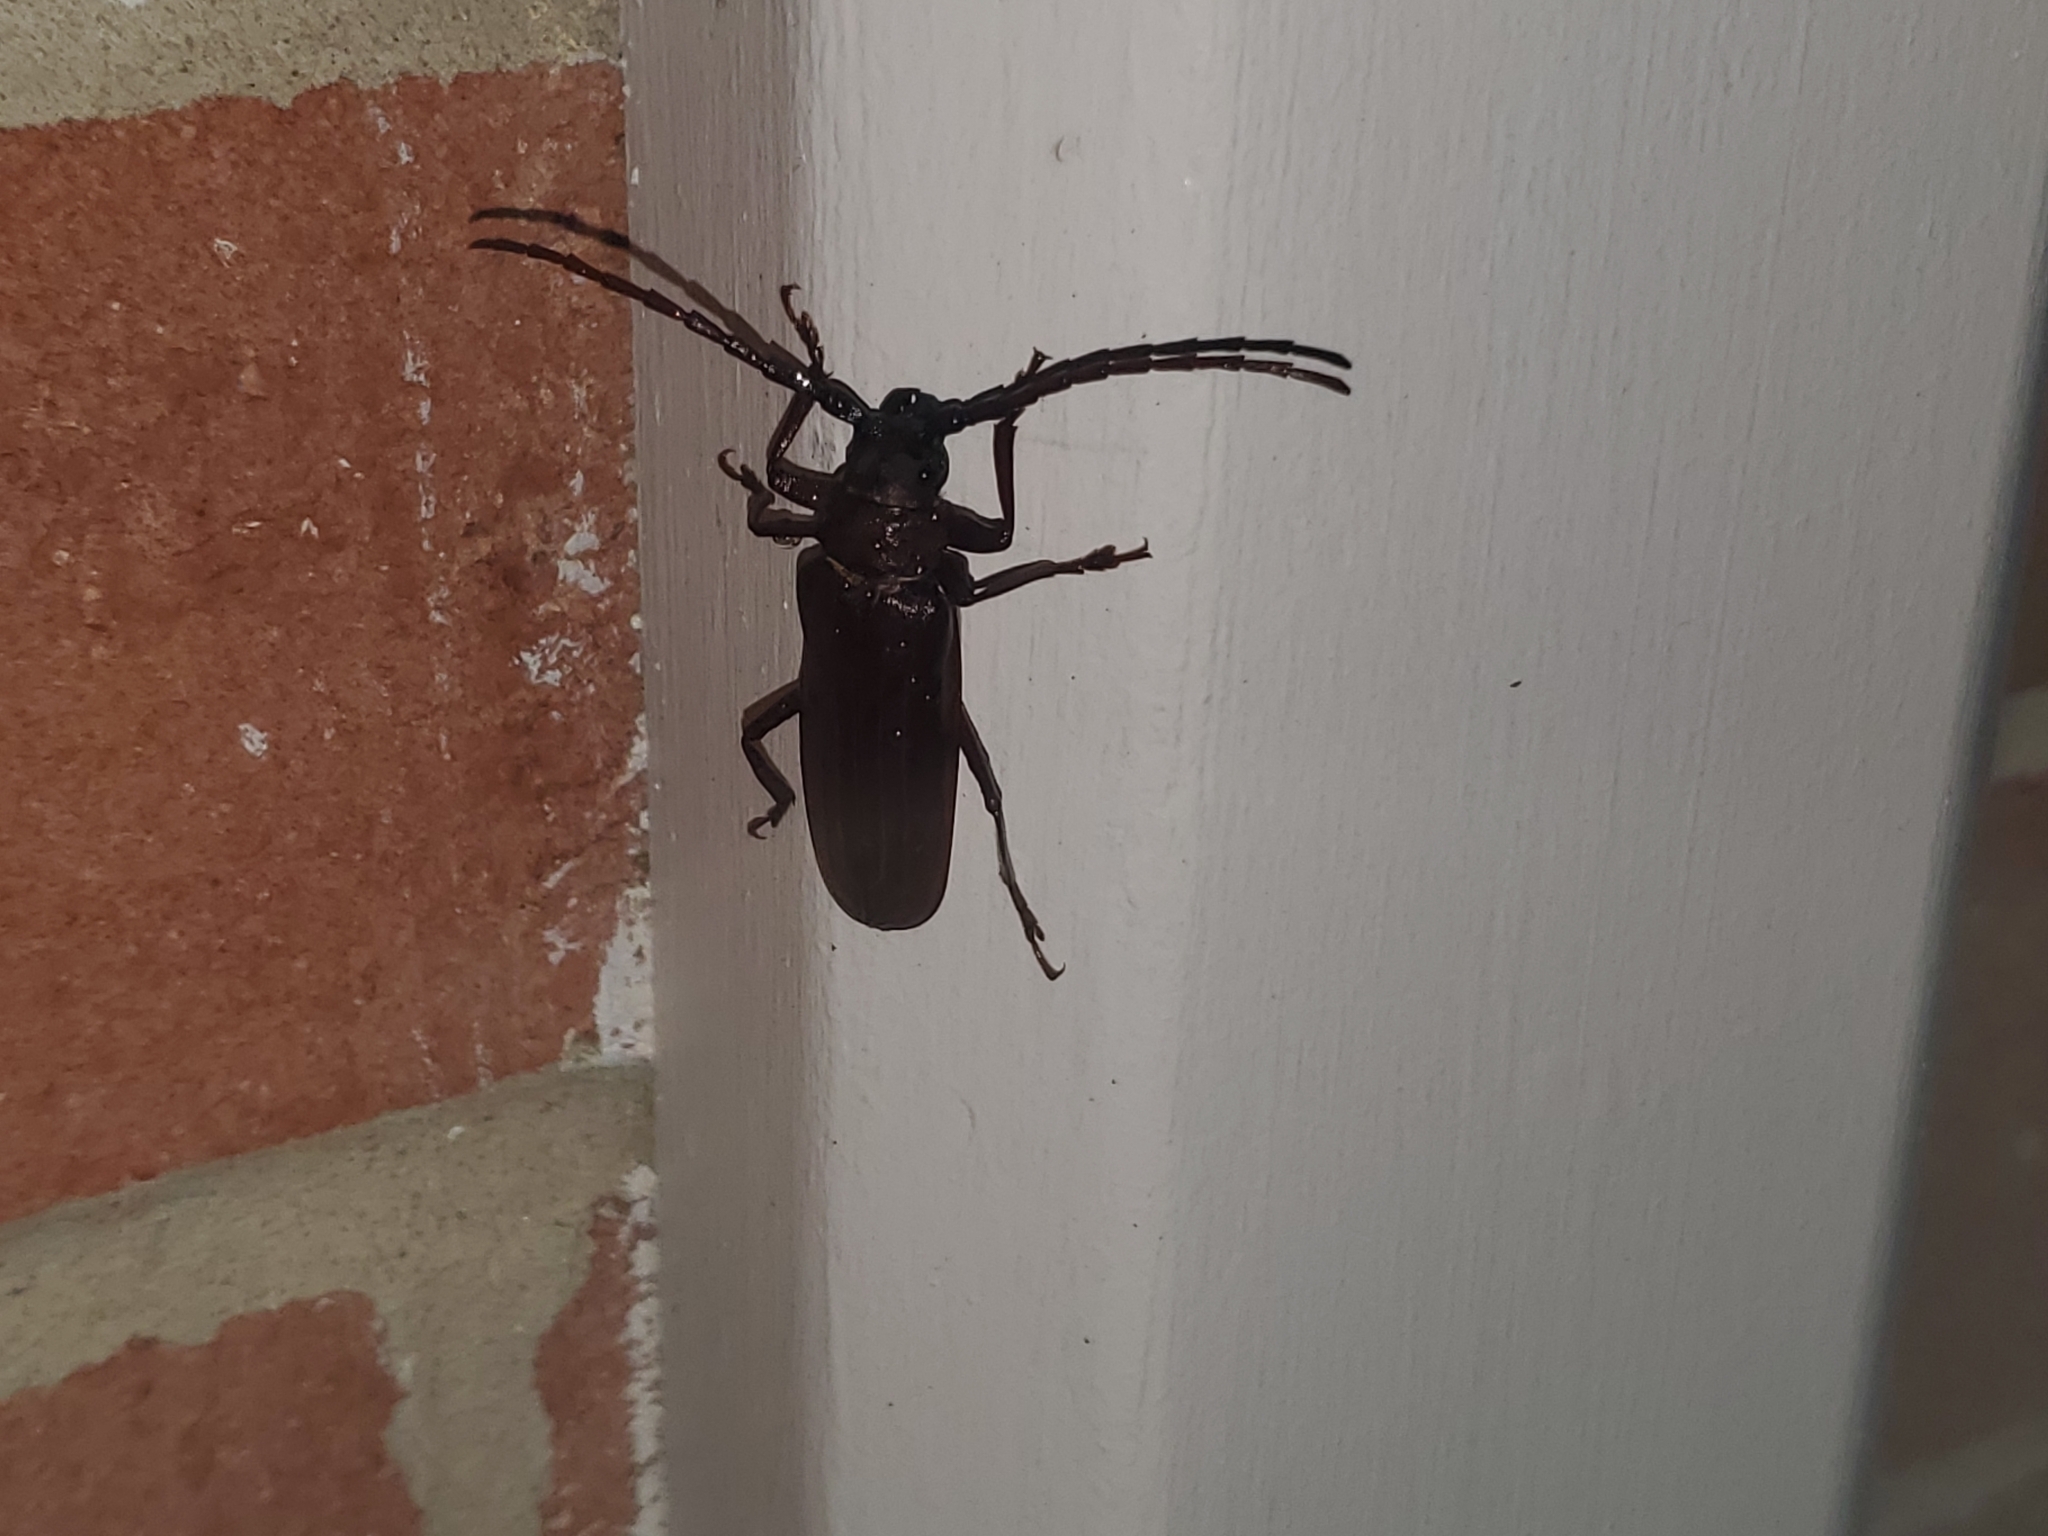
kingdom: Animalia
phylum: Arthropoda
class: Insecta
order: Coleoptera
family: Cerambycidae
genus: Orthosoma
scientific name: Orthosoma brunneum
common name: Brown prionid beetle
